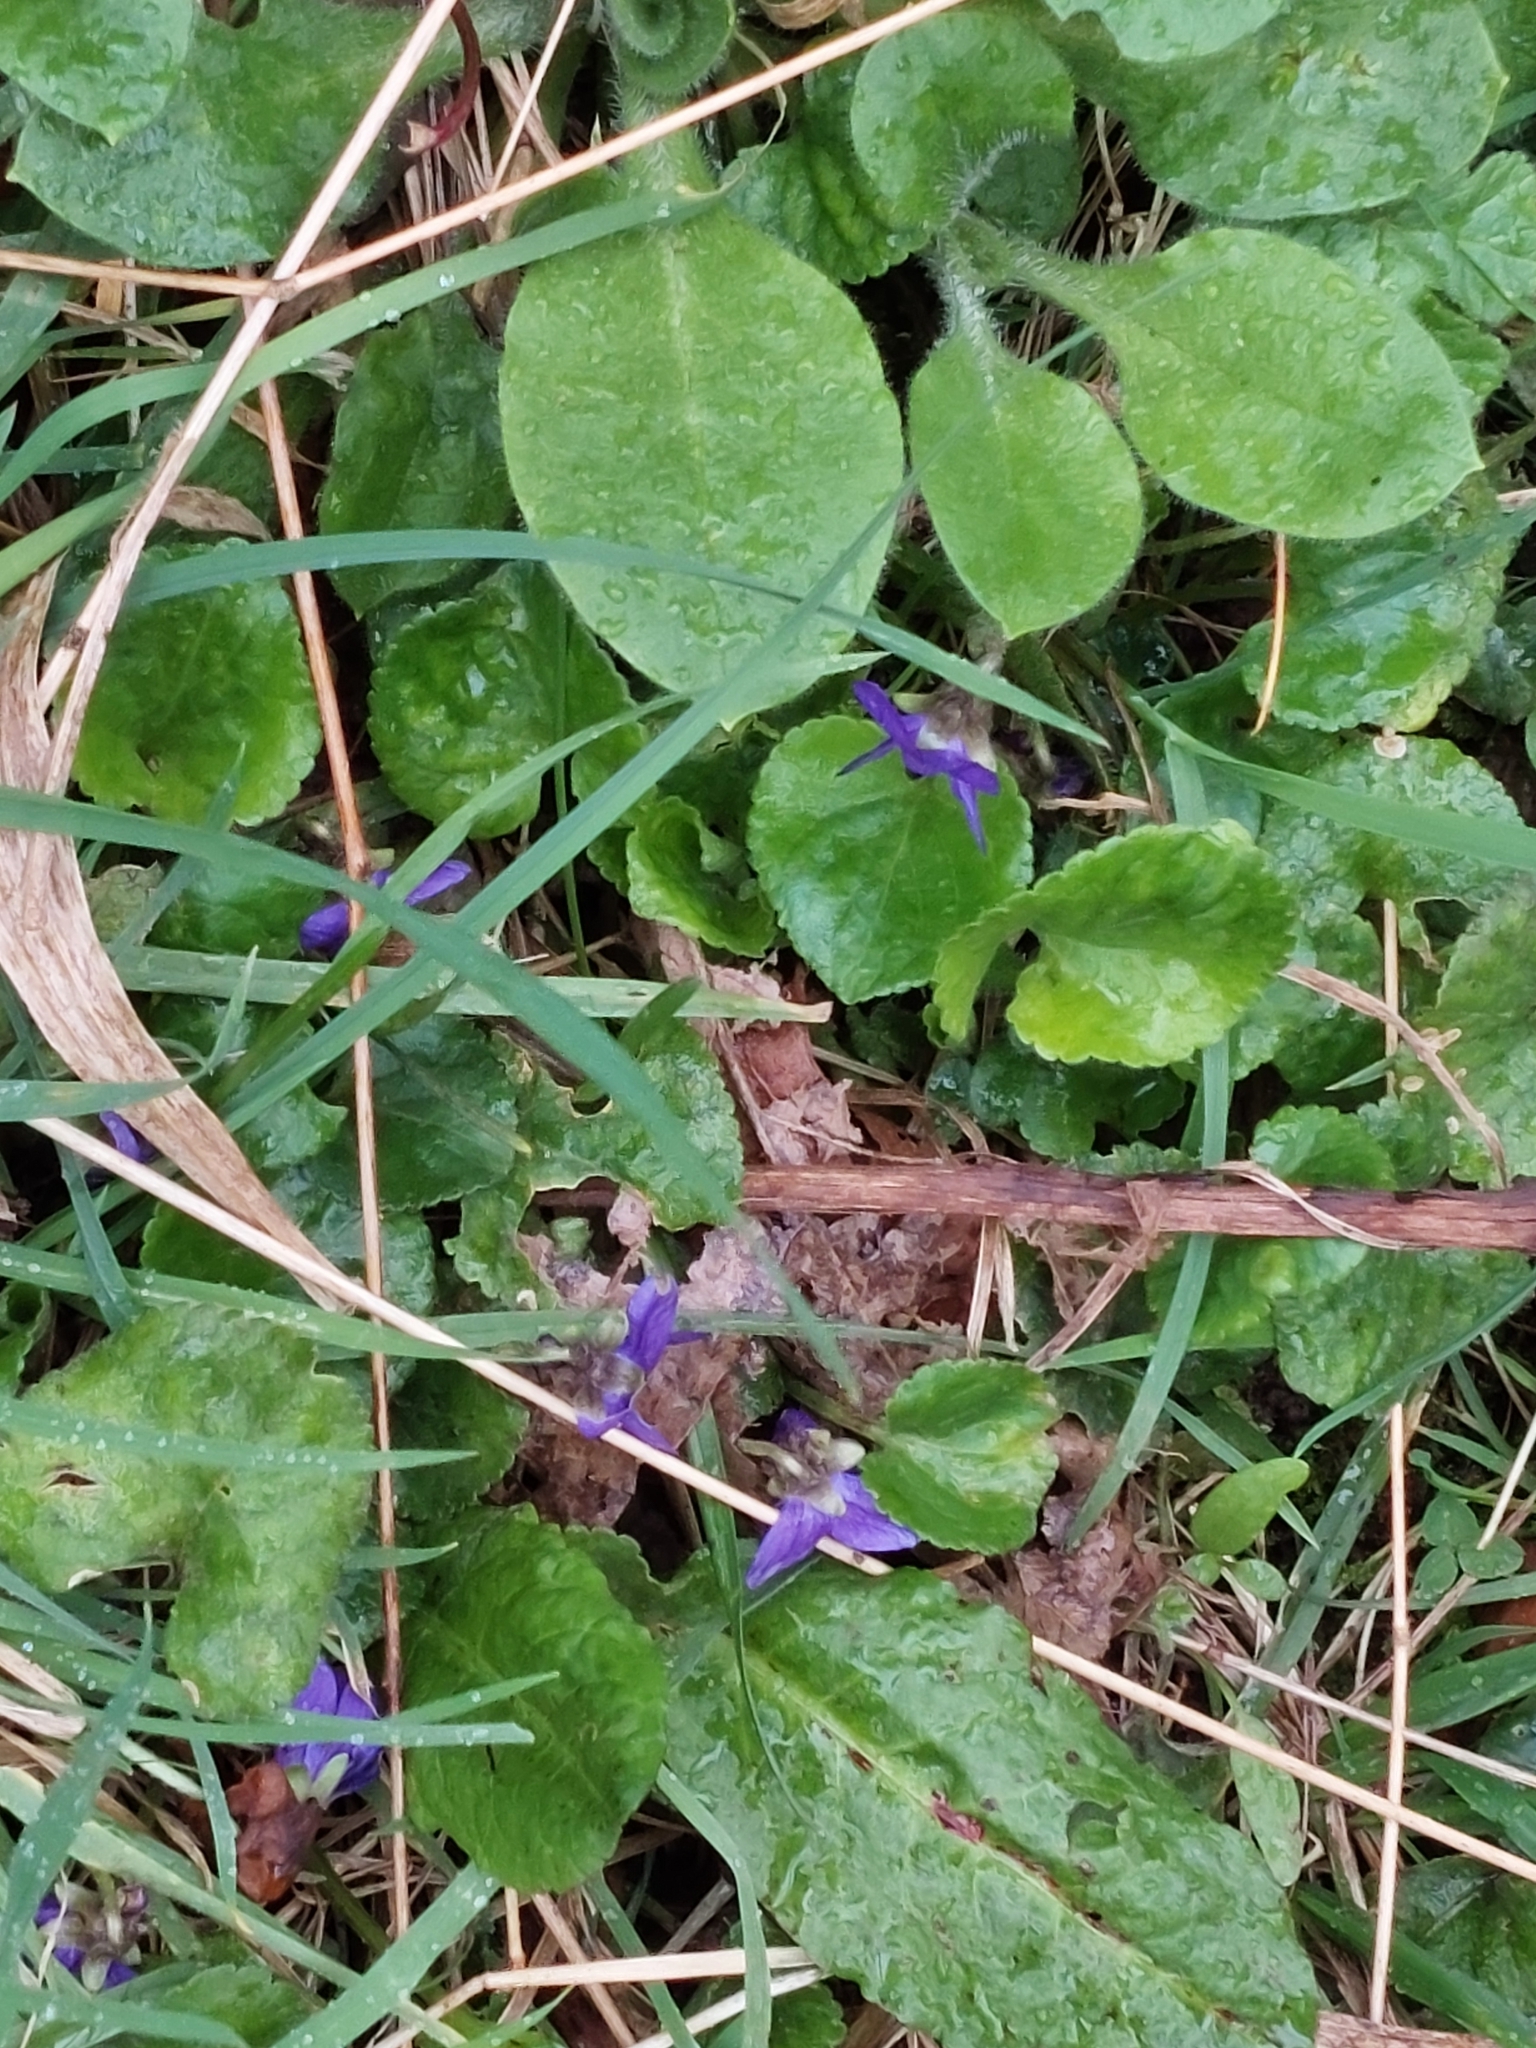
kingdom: Plantae
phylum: Tracheophyta
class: Magnoliopsida
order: Malpighiales
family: Violaceae
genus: Viola
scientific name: Viola odorata
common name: Sweet violet
